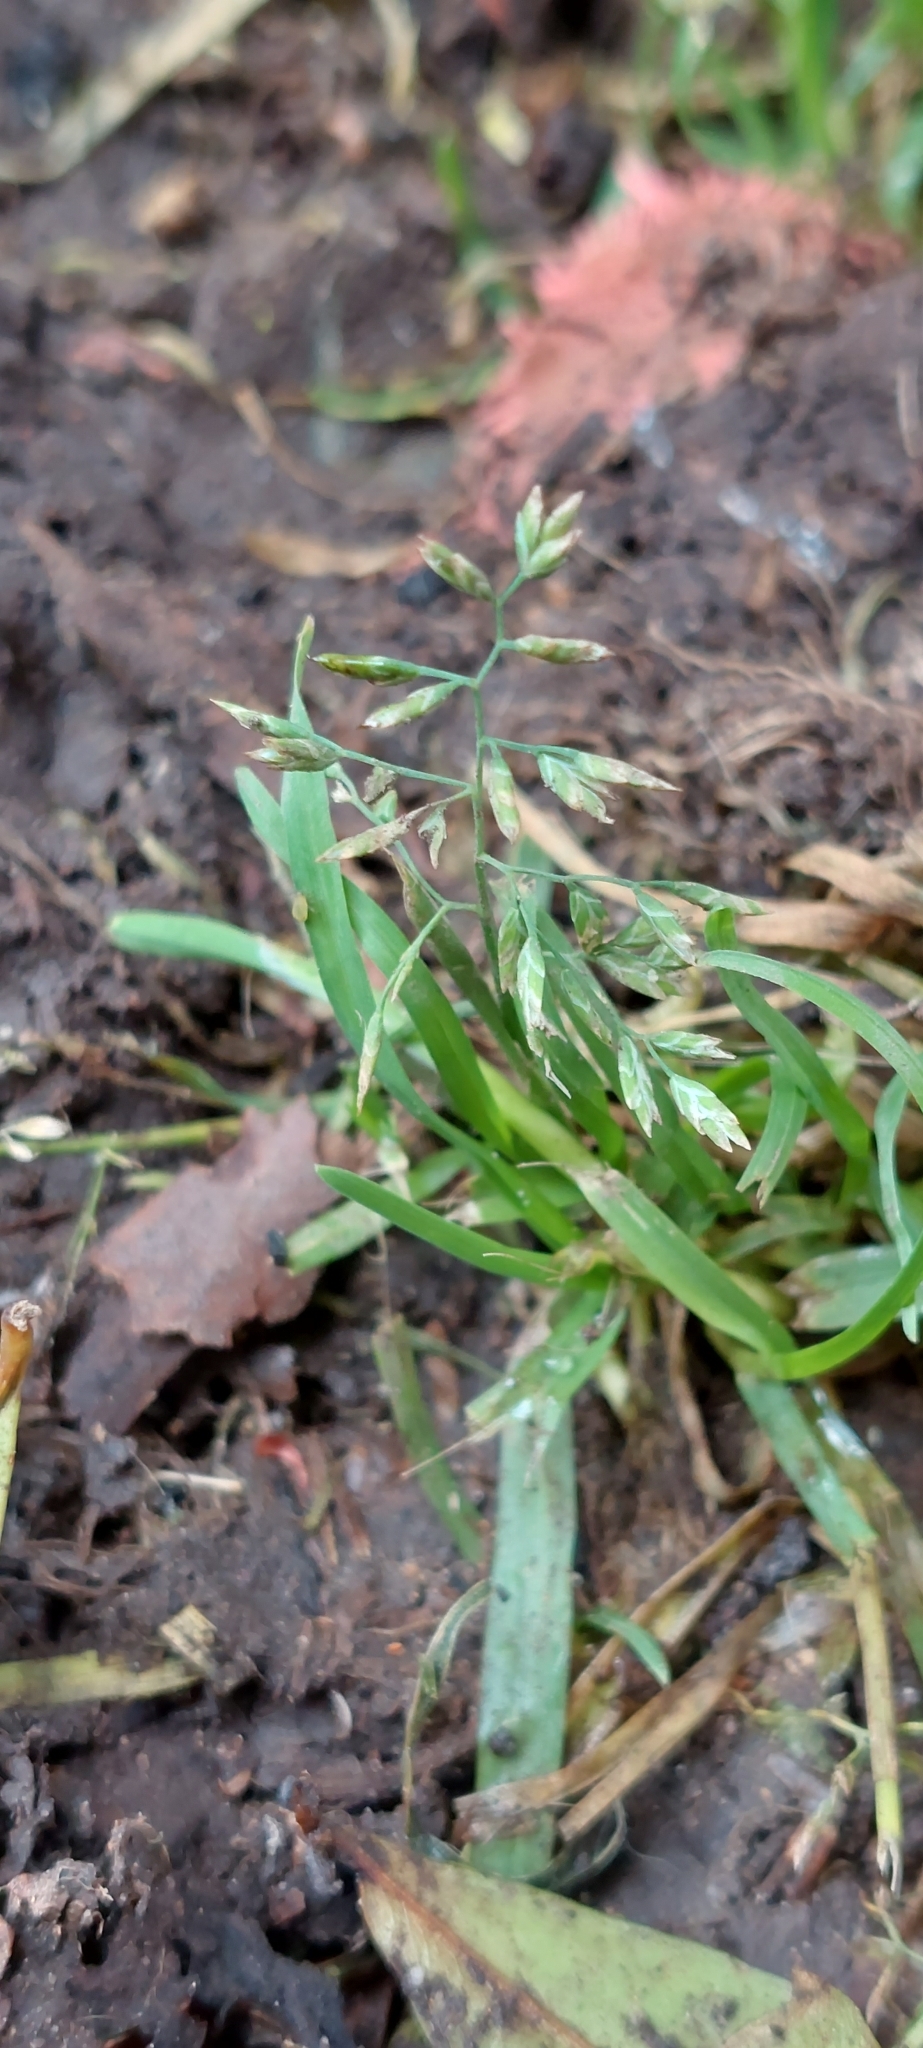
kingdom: Plantae
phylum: Tracheophyta
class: Liliopsida
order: Poales
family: Poaceae
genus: Poa
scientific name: Poa annua
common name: Annual bluegrass
